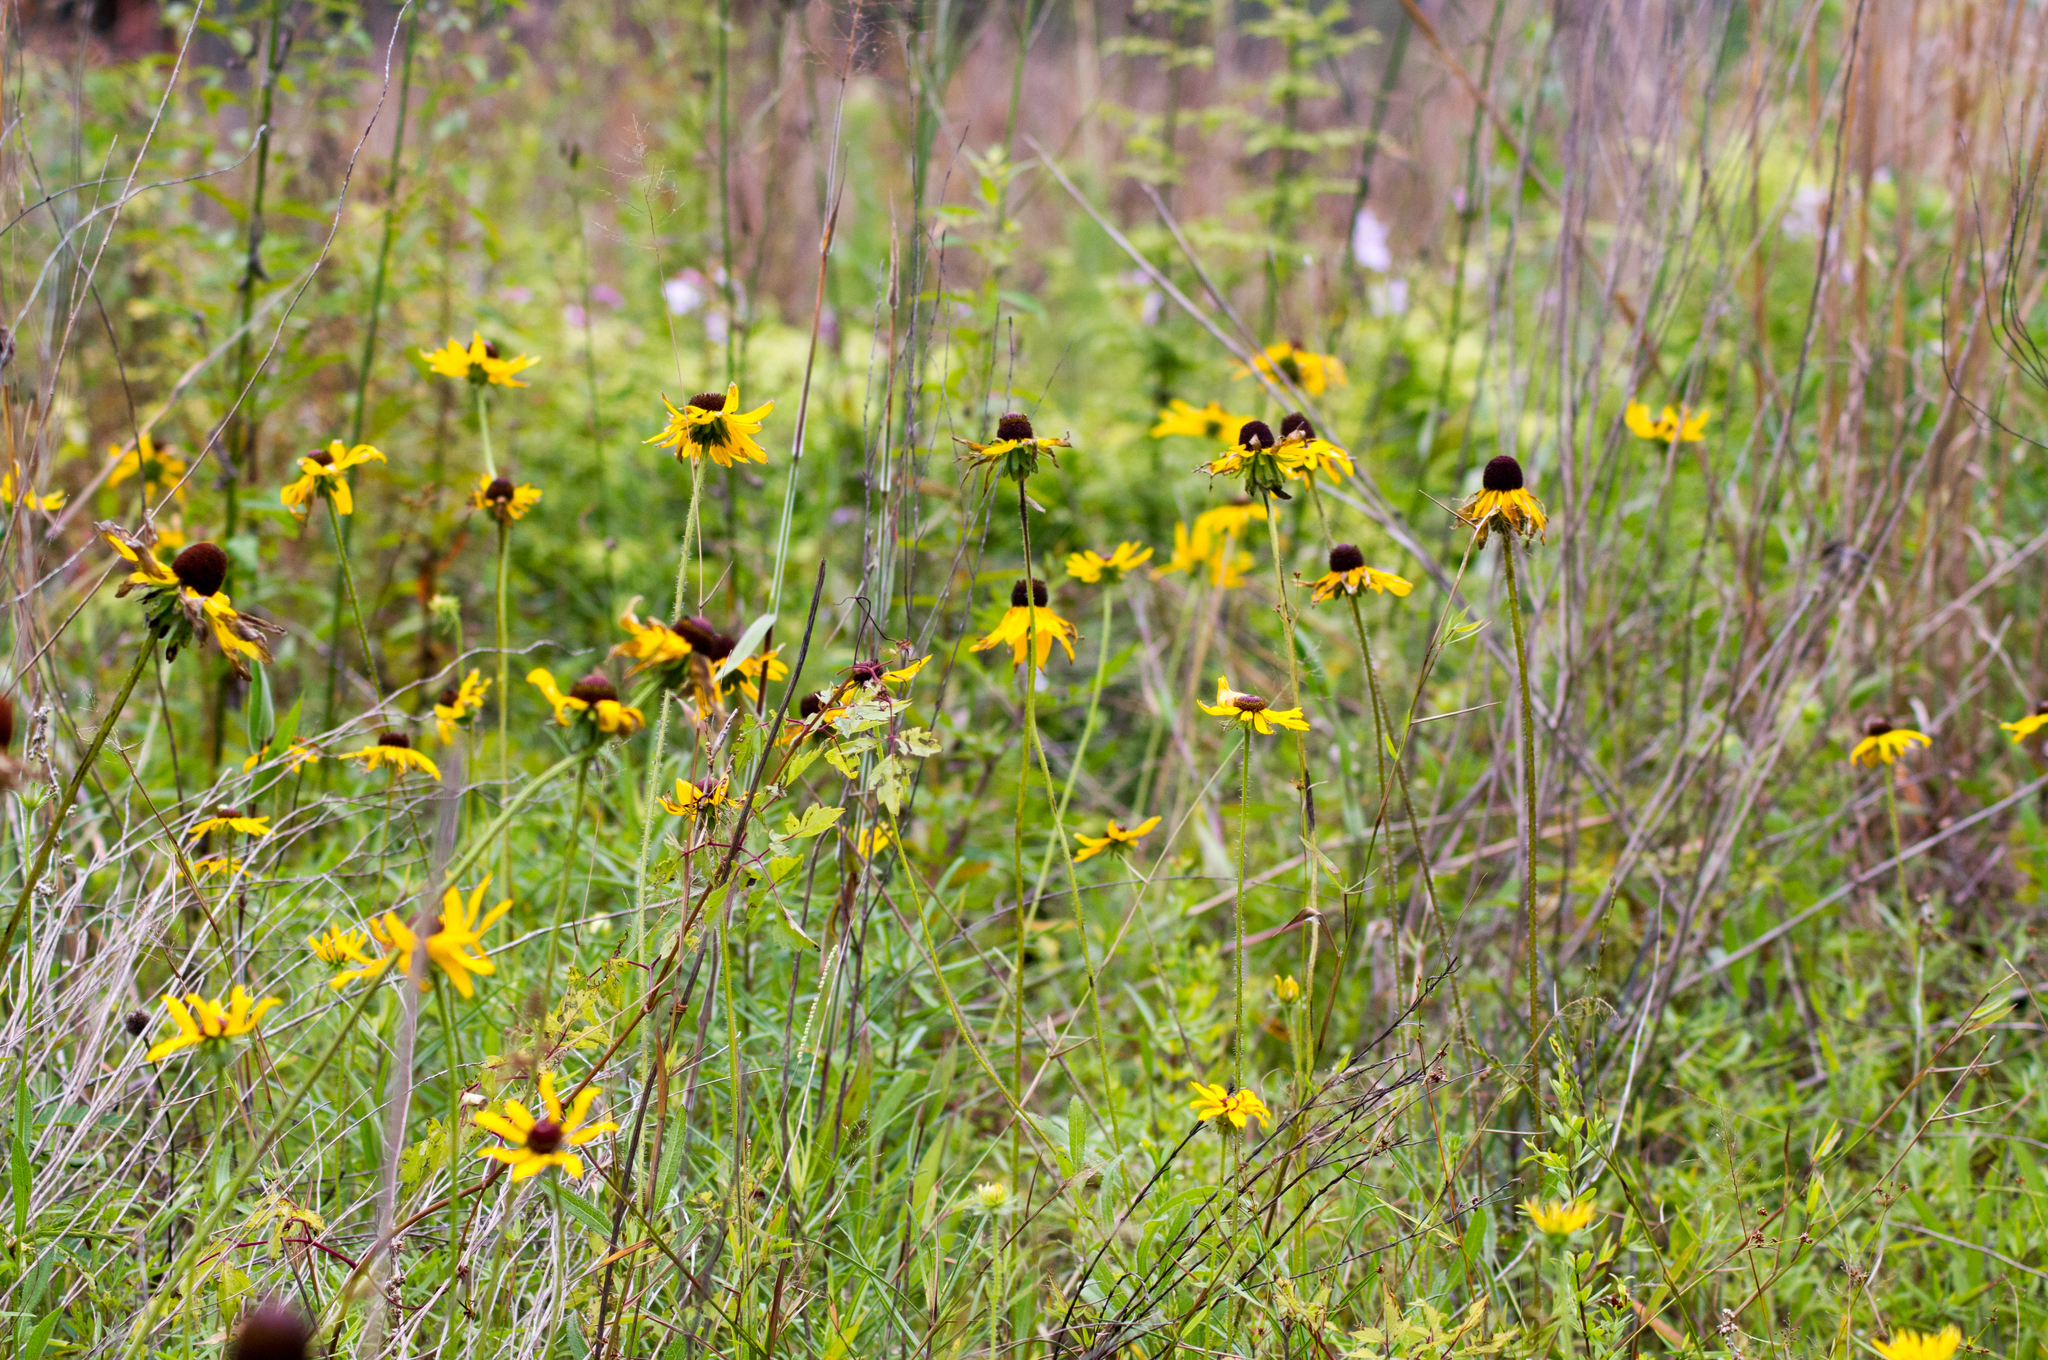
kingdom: Plantae
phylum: Tracheophyta
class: Magnoliopsida
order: Asterales
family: Asteraceae
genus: Rudbeckia
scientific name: Rudbeckia hirta
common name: Black-eyed-susan
